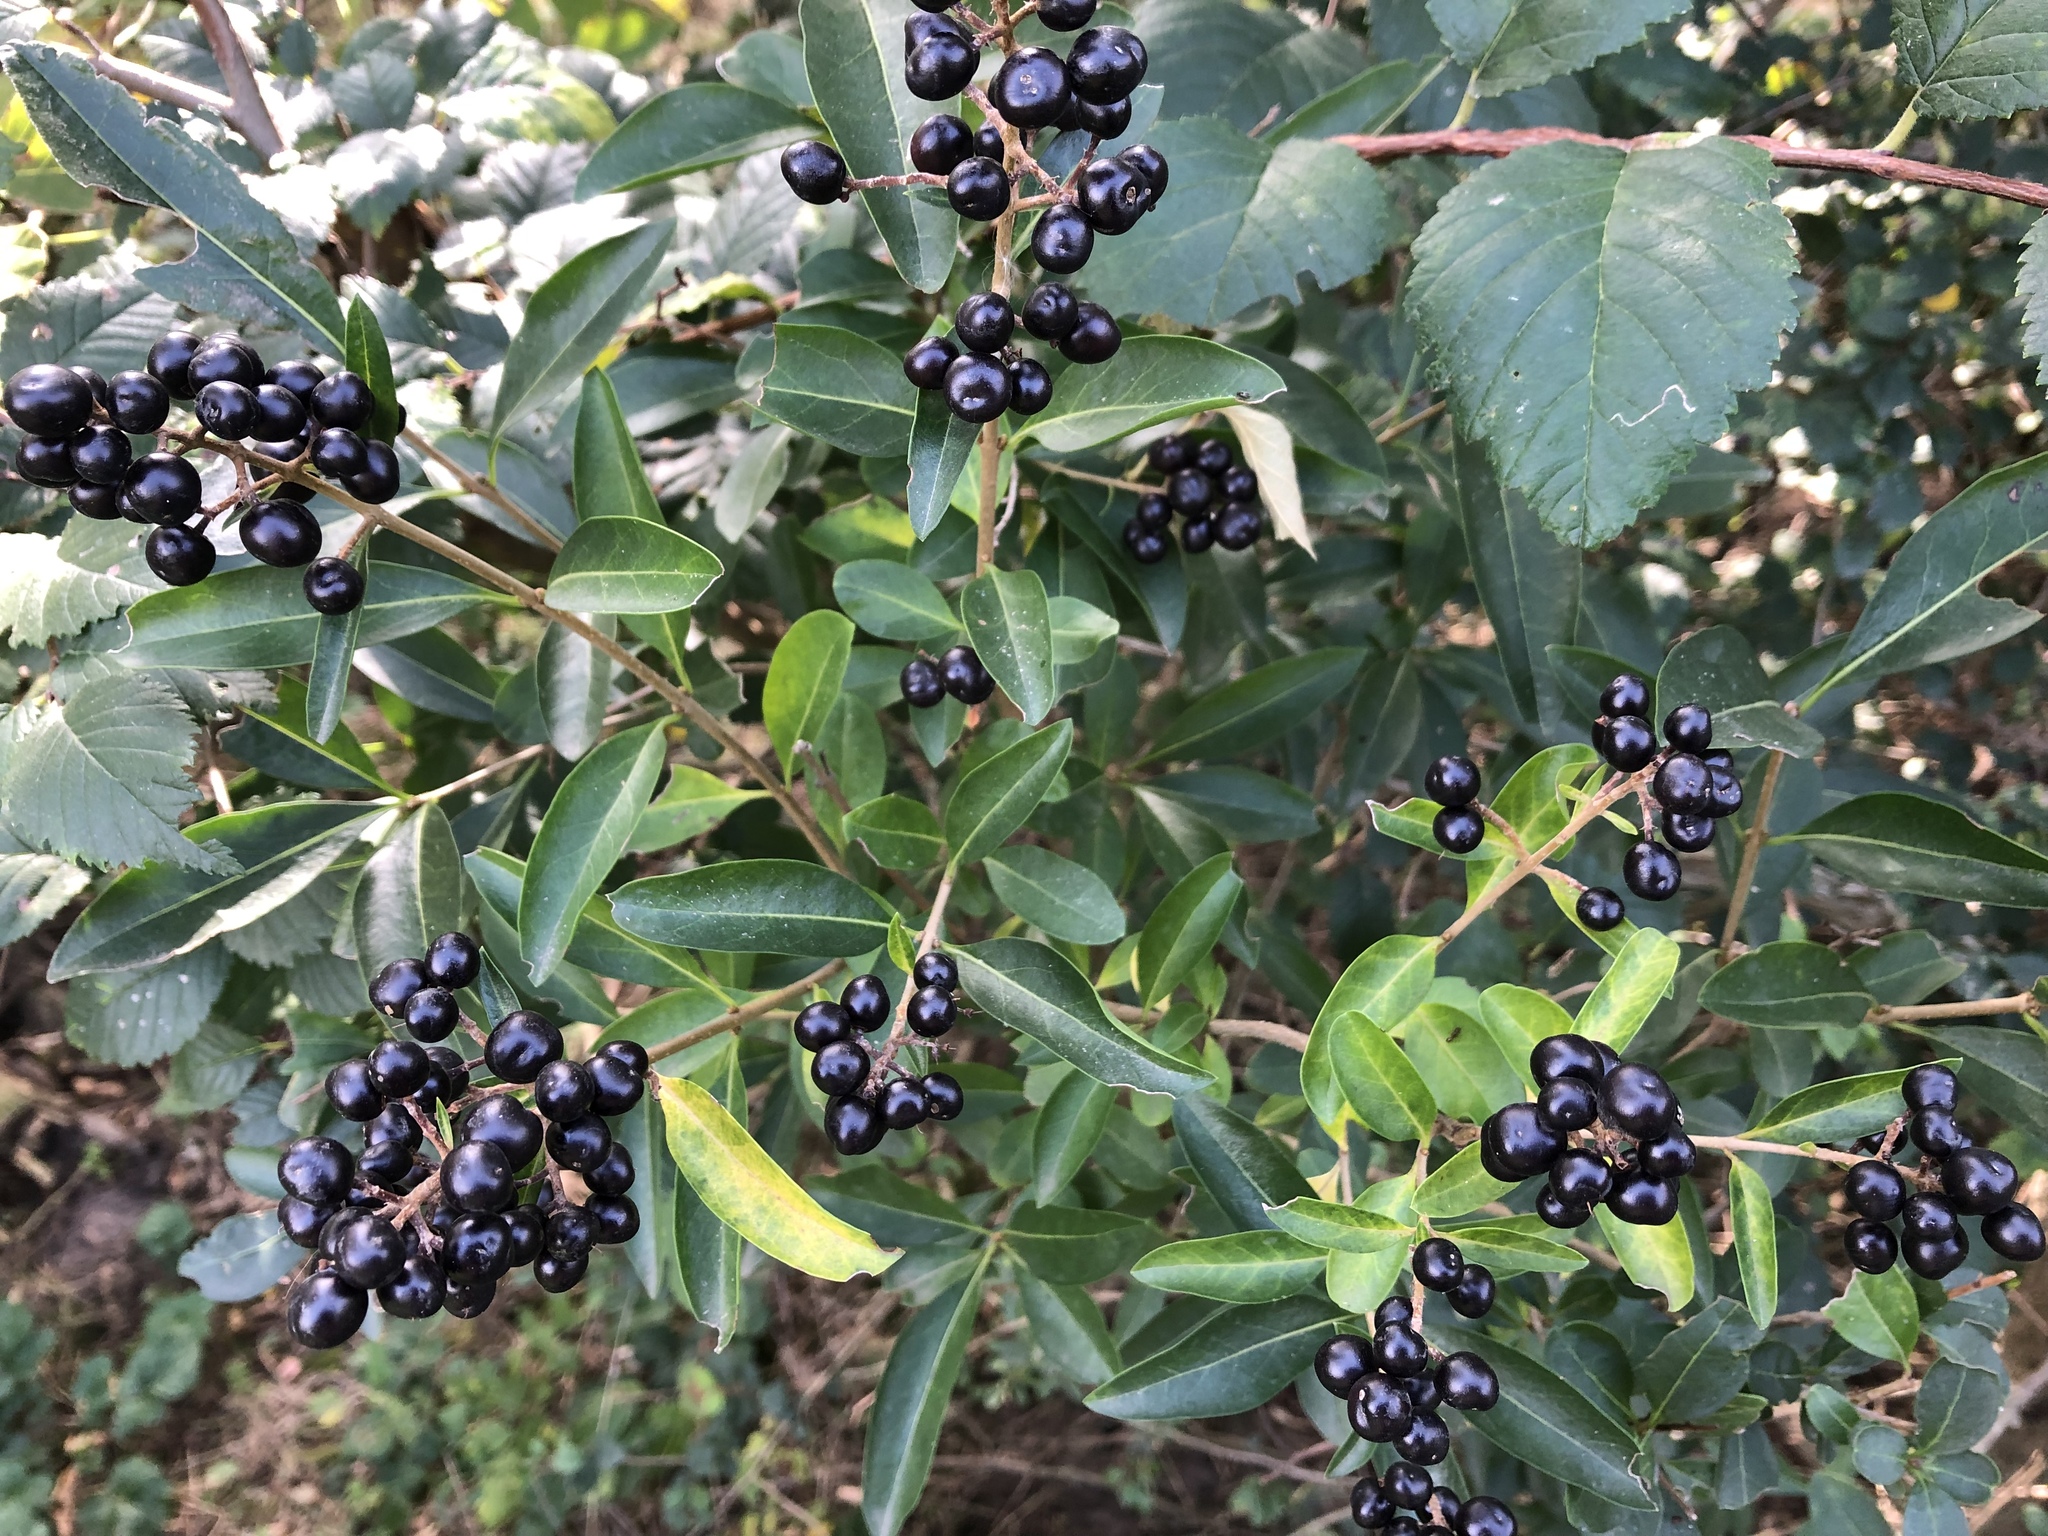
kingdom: Plantae
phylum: Tracheophyta
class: Magnoliopsida
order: Lamiales
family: Oleaceae
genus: Ligustrum
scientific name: Ligustrum vulgare
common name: Wild privet
